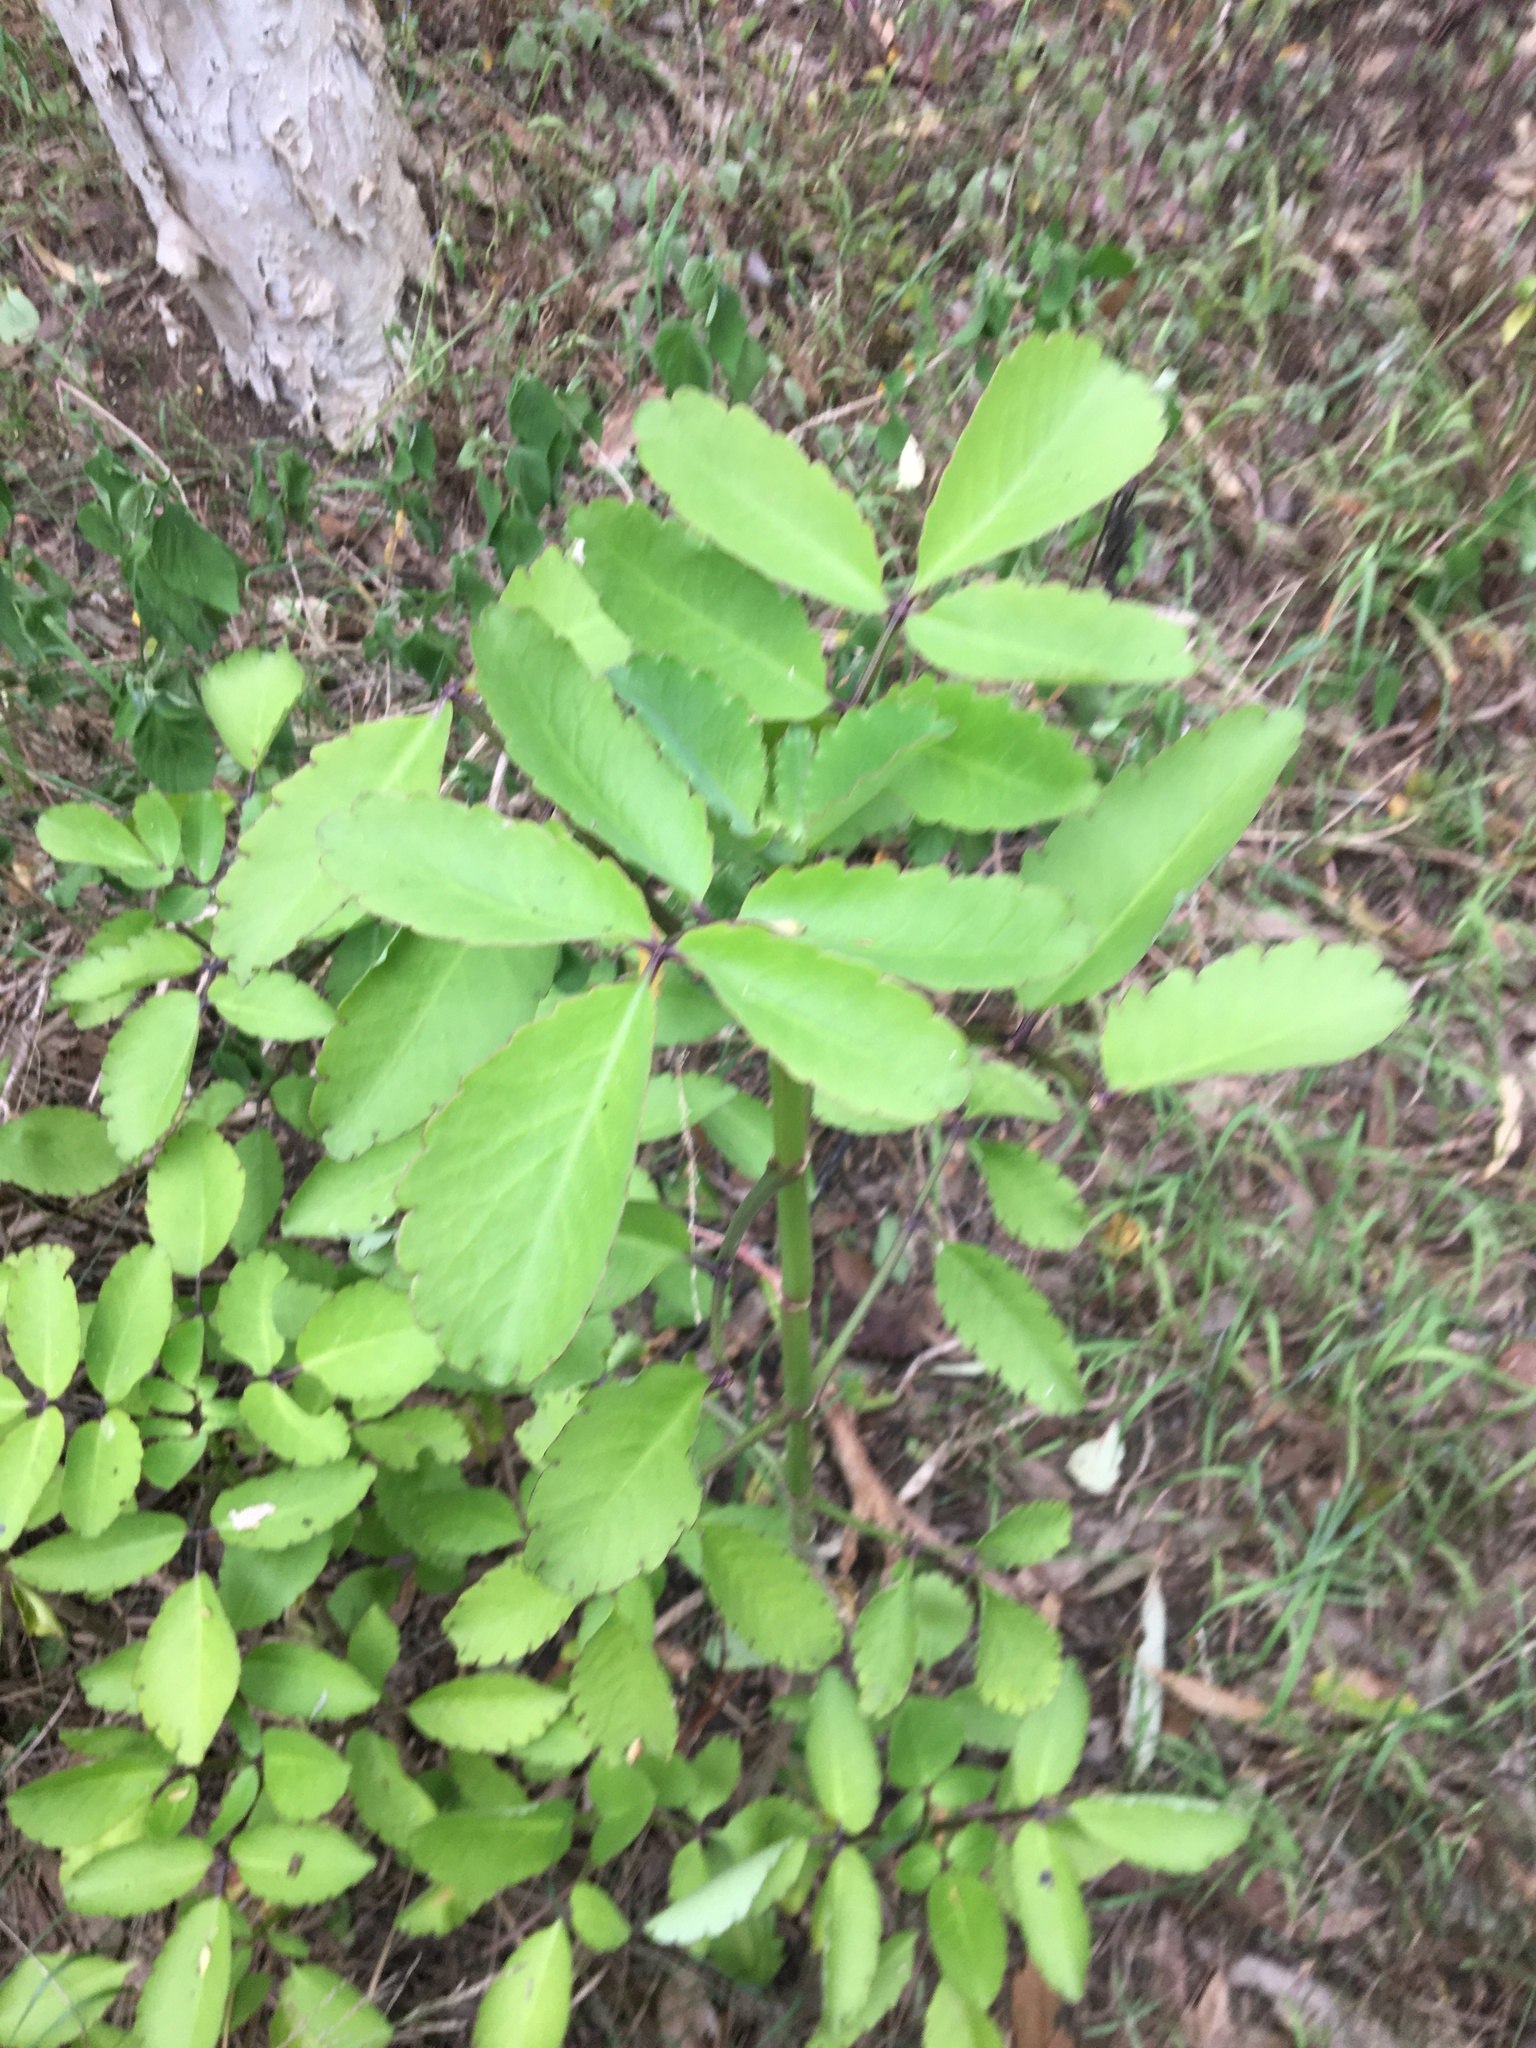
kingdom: Plantae
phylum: Tracheophyta
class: Magnoliopsida
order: Saxifragales
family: Crassulaceae
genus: Kalanchoe
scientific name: Kalanchoe pinnata
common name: Cathedral bells
